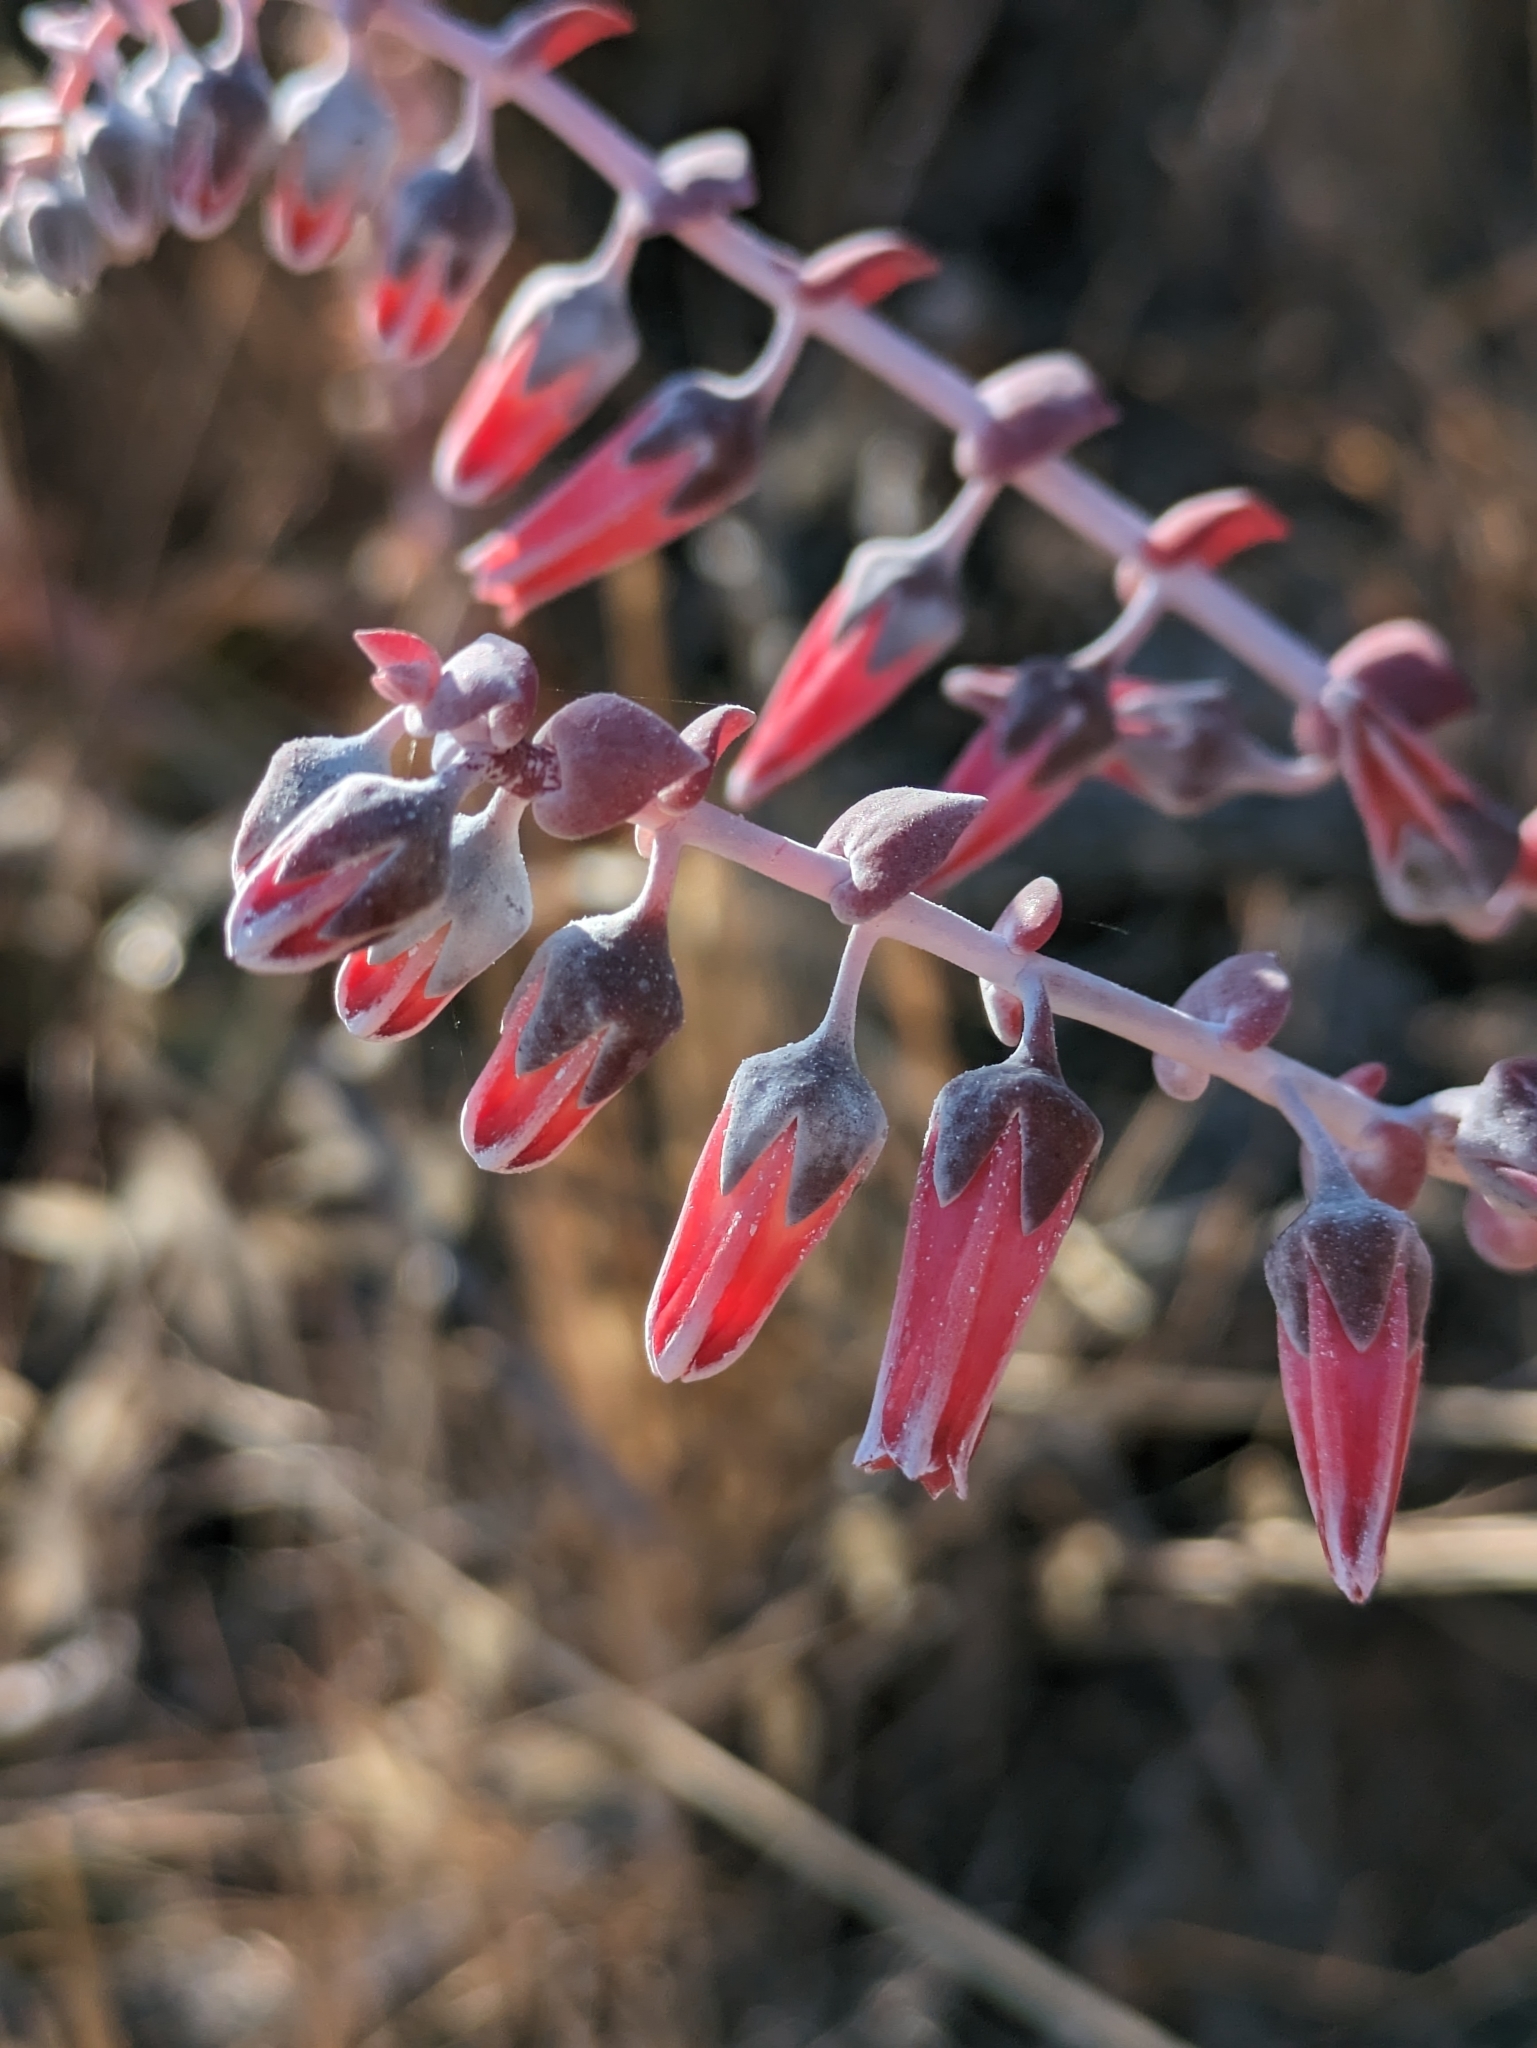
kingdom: Plantae
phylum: Tracheophyta
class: Magnoliopsida
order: Saxifragales
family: Crassulaceae
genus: Dudleya
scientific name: Dudleya pulverulenta
